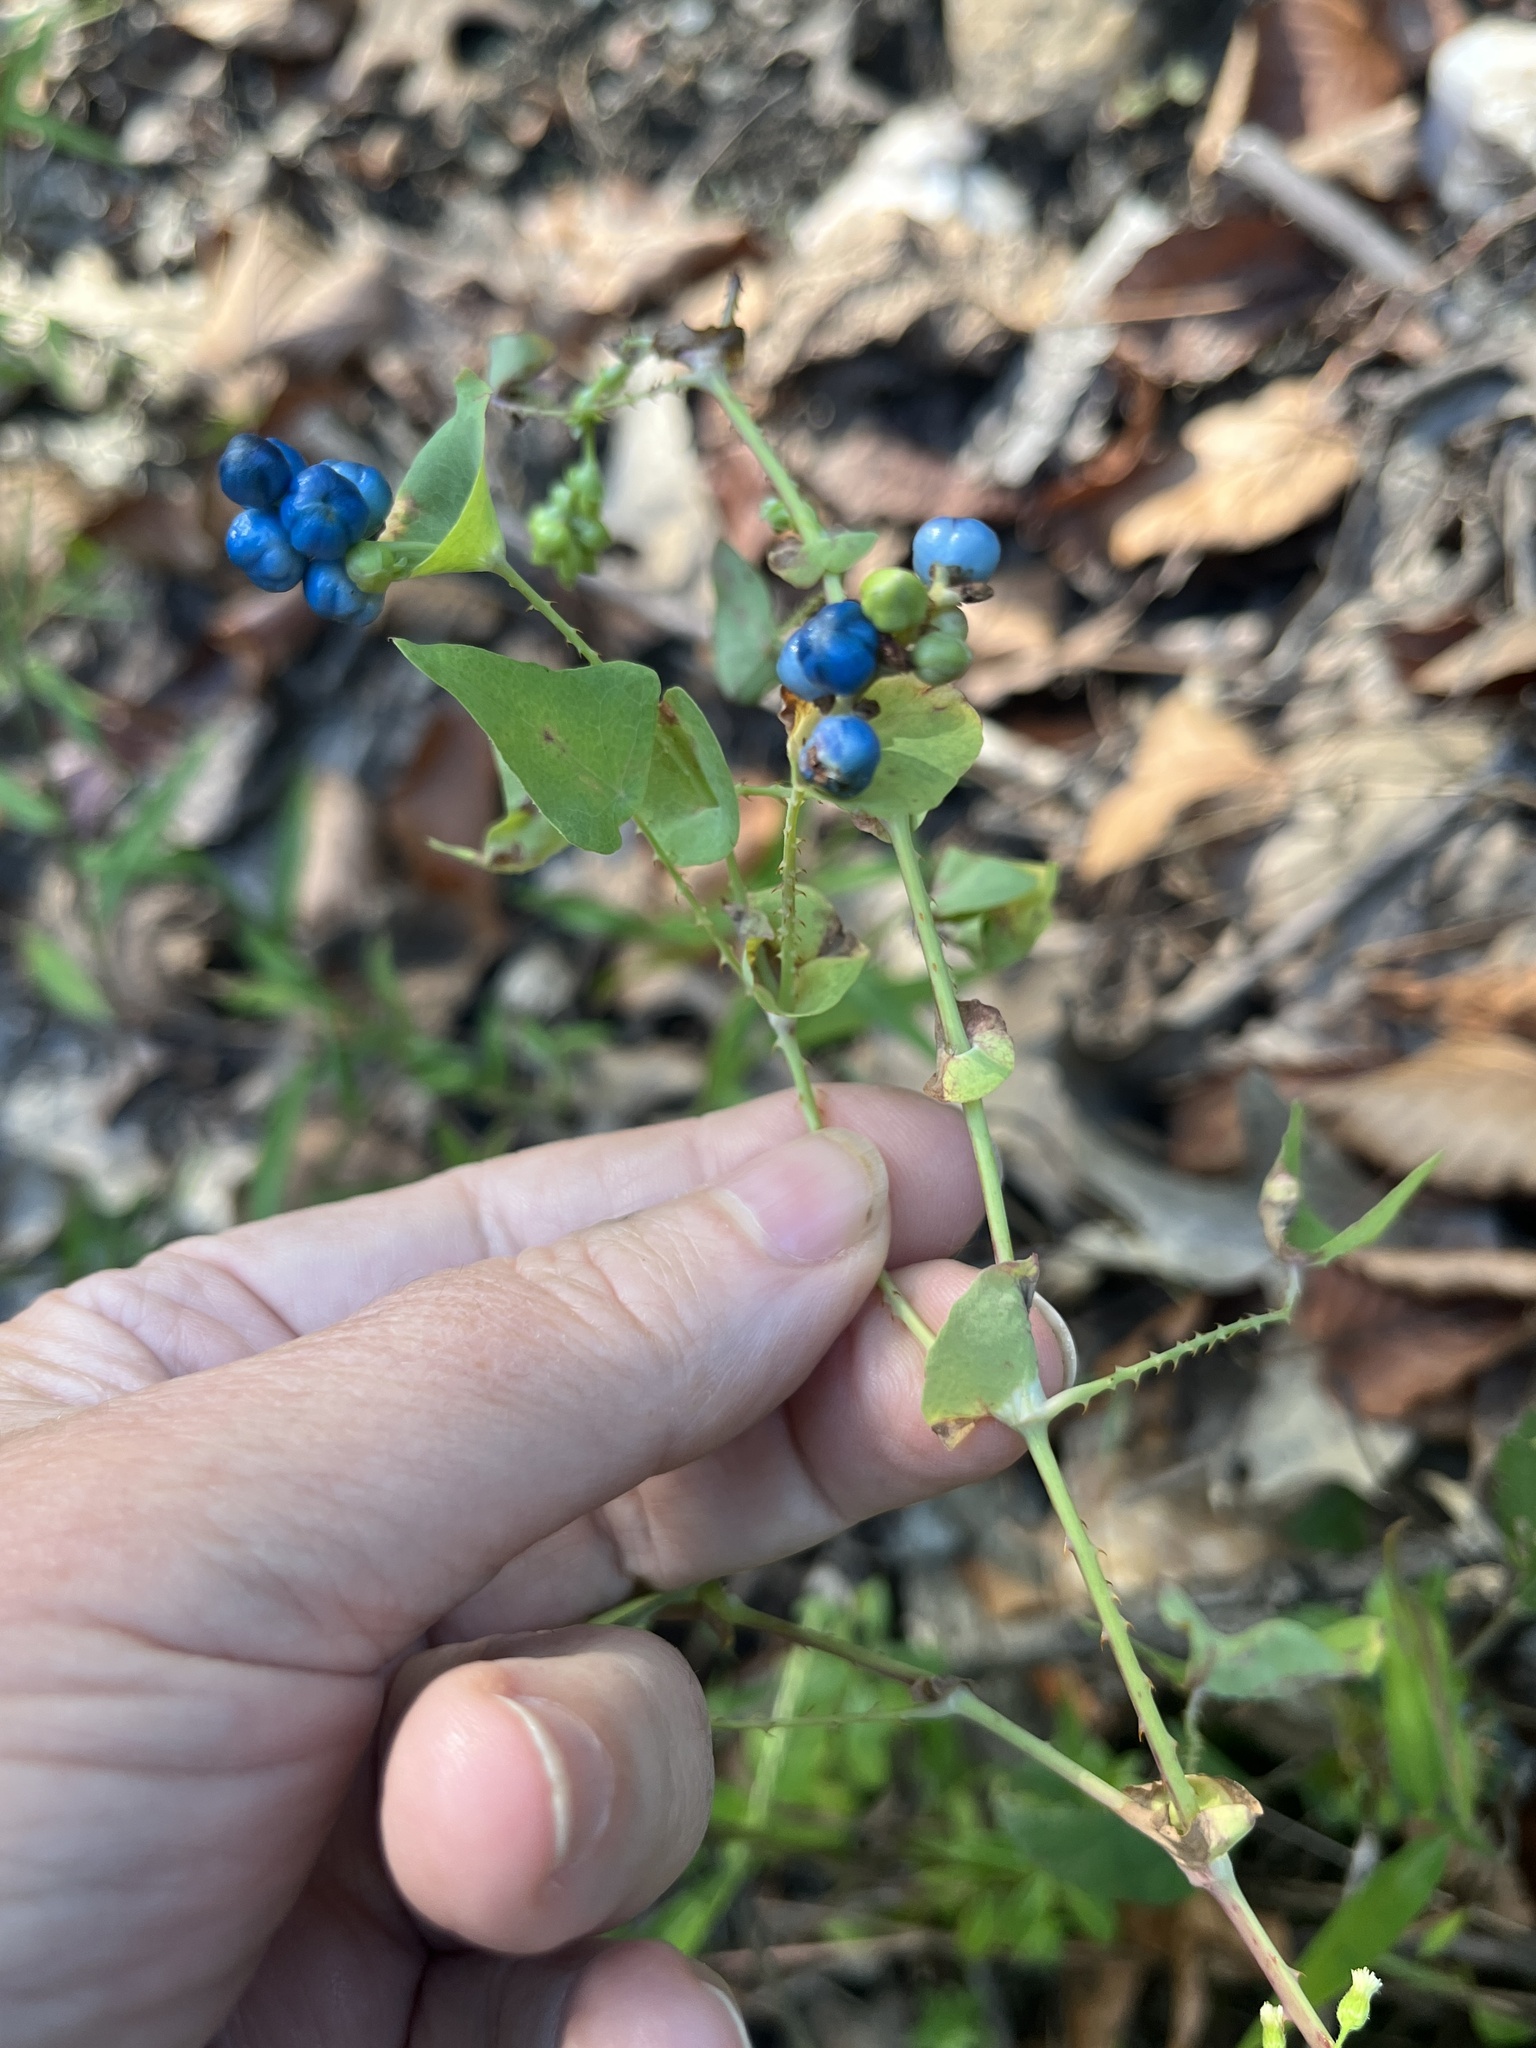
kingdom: Plantae
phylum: Tracheophyta
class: Magnoliopsida
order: Caryophyllales
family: Polygonaceae
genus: Persicaria
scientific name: Persicaria perfoliata
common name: Asiatic tearthumb
